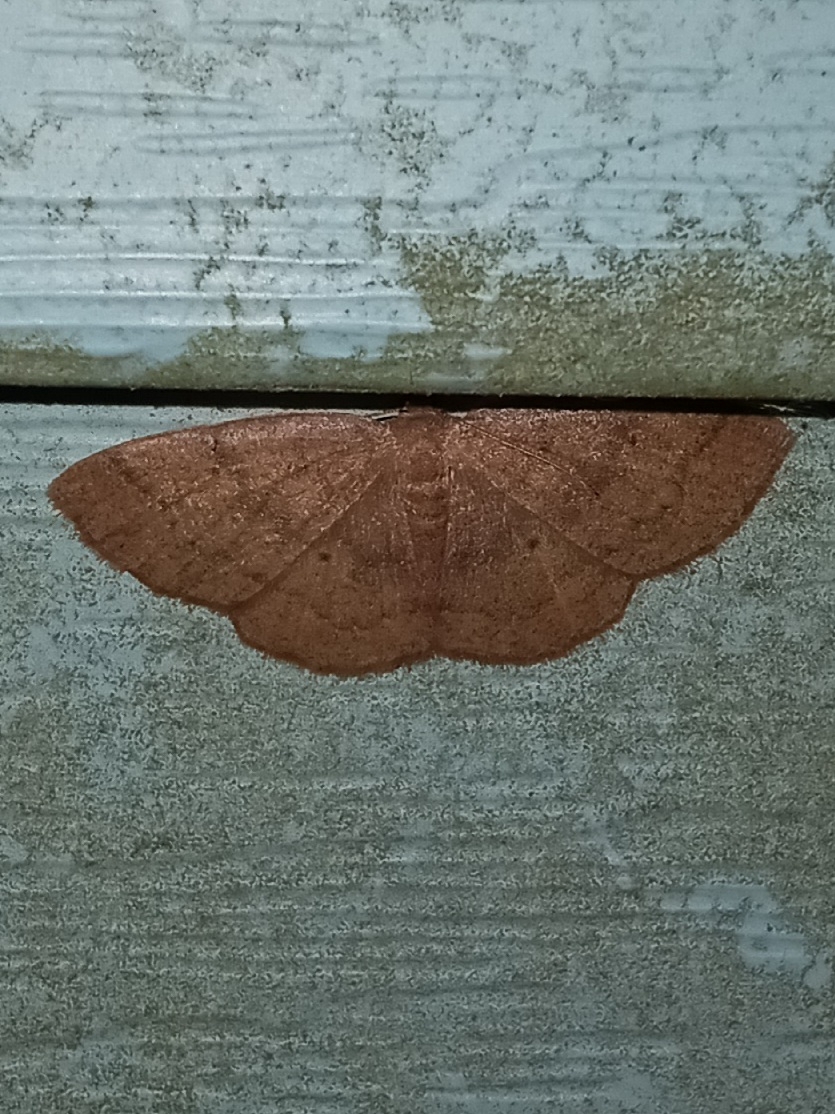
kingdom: Animalia
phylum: Arthropoda
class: Insecta
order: Lepidoptera
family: Geometridae
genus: Ilexia
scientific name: Ilexia intractata
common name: Black-dotted ruddy moth
